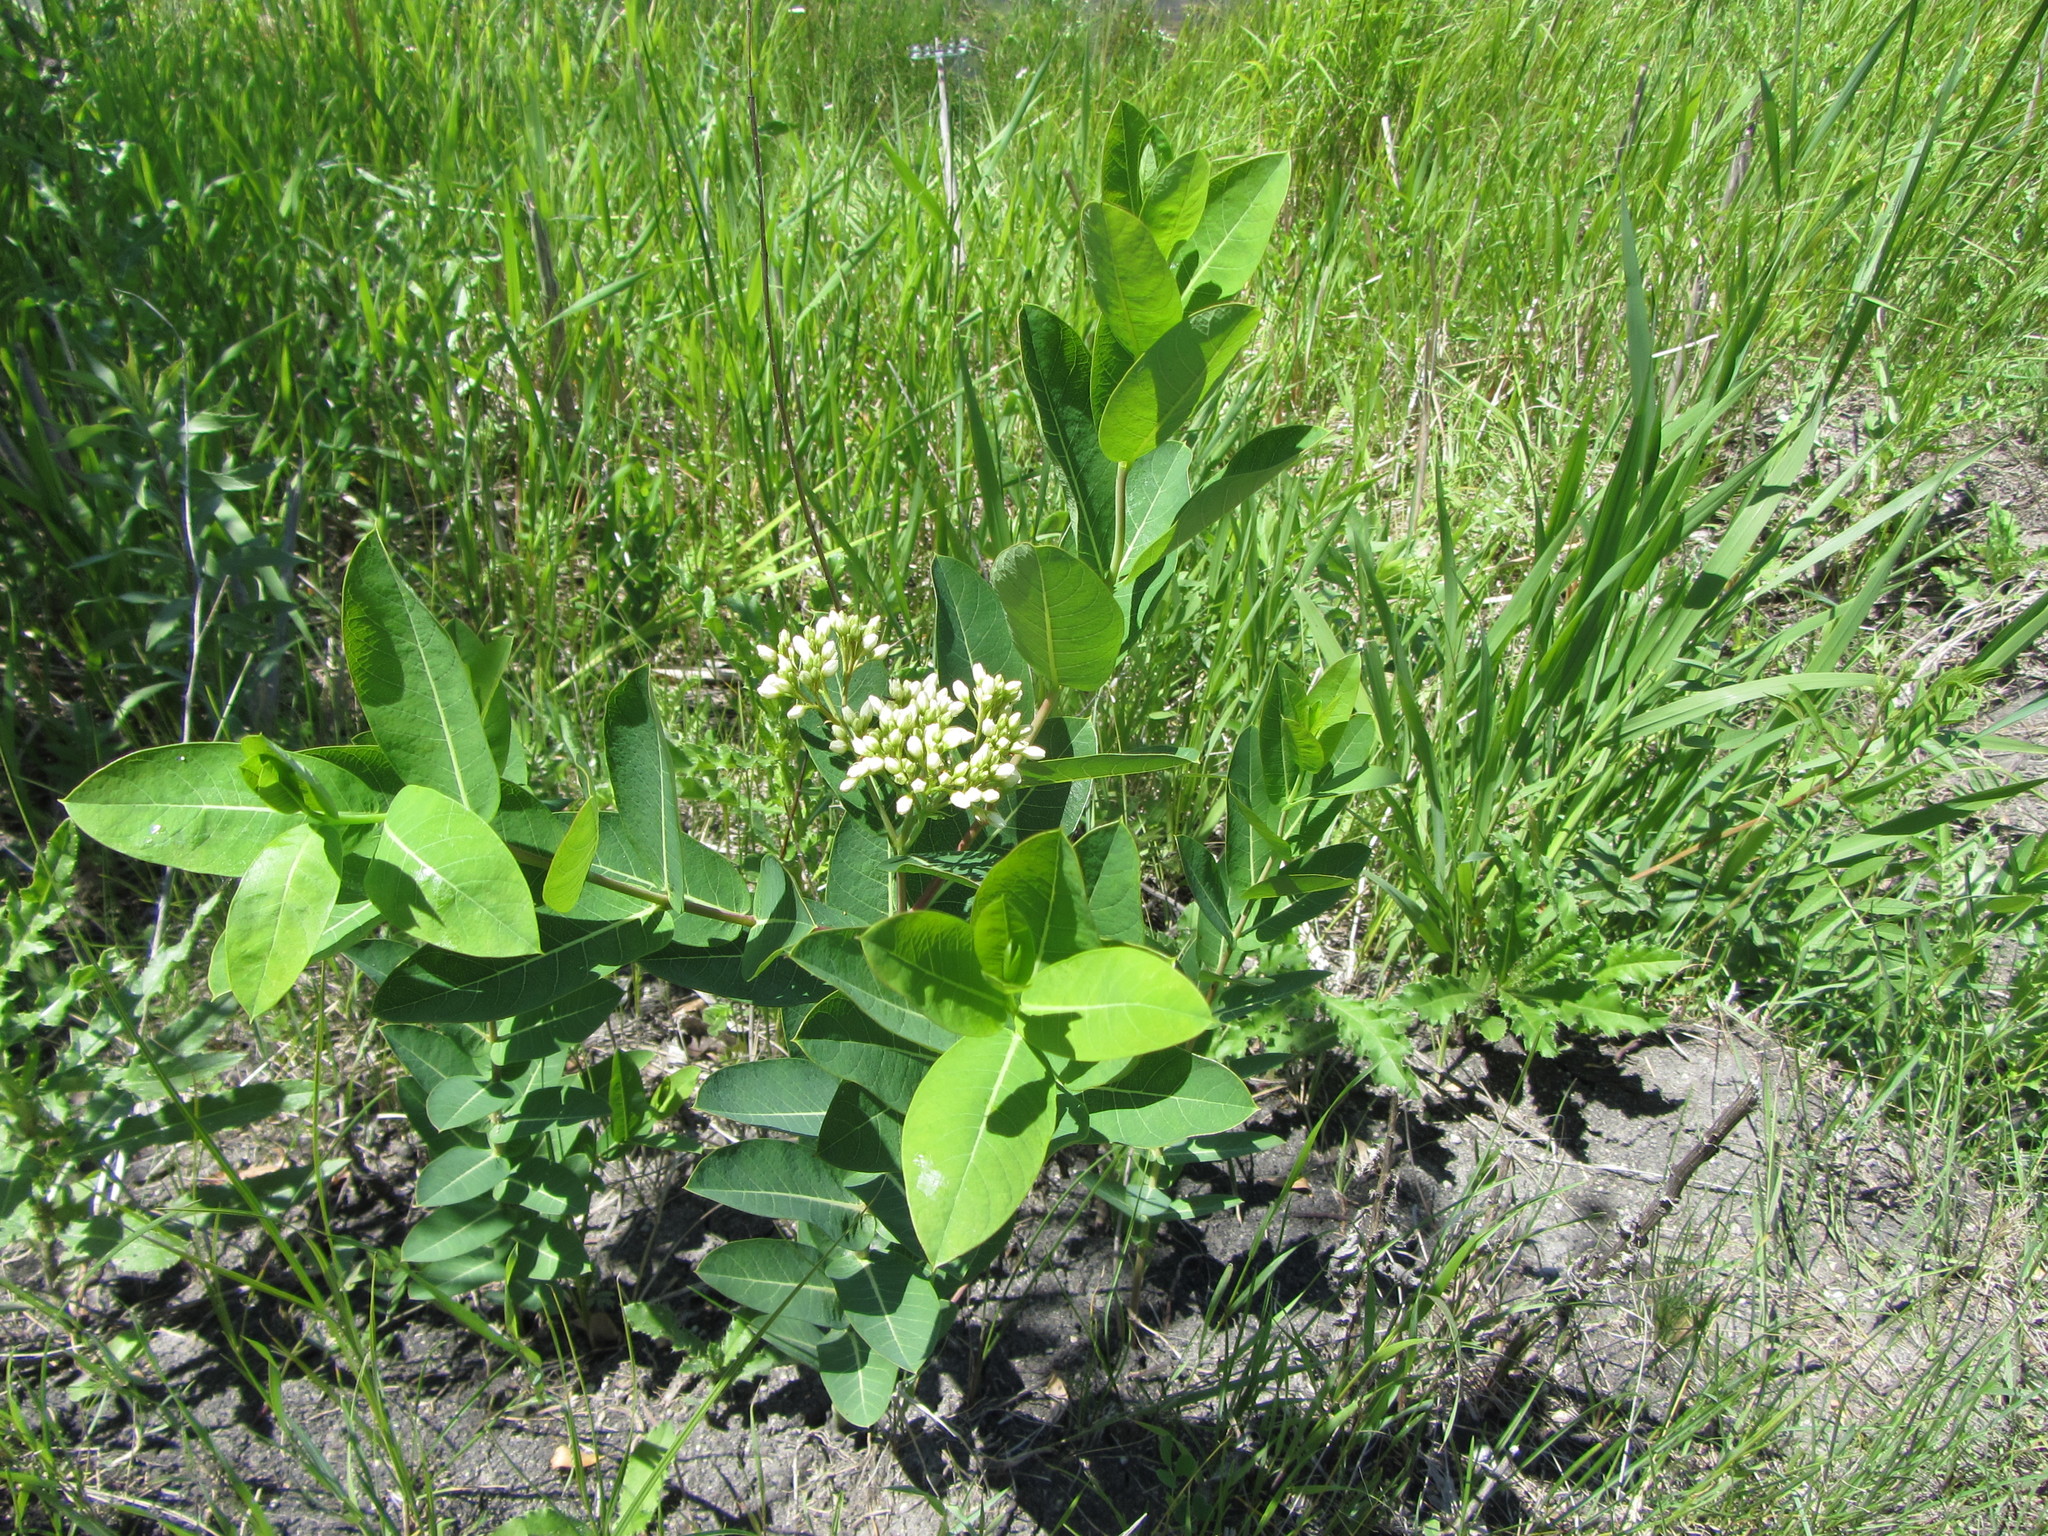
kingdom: Plantae
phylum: Tracheophyta
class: Magnoliopsida
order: Gentianales
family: Apocynaceae
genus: Apocynum
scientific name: Apocynum cannabinum
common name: Hemp dogbane
